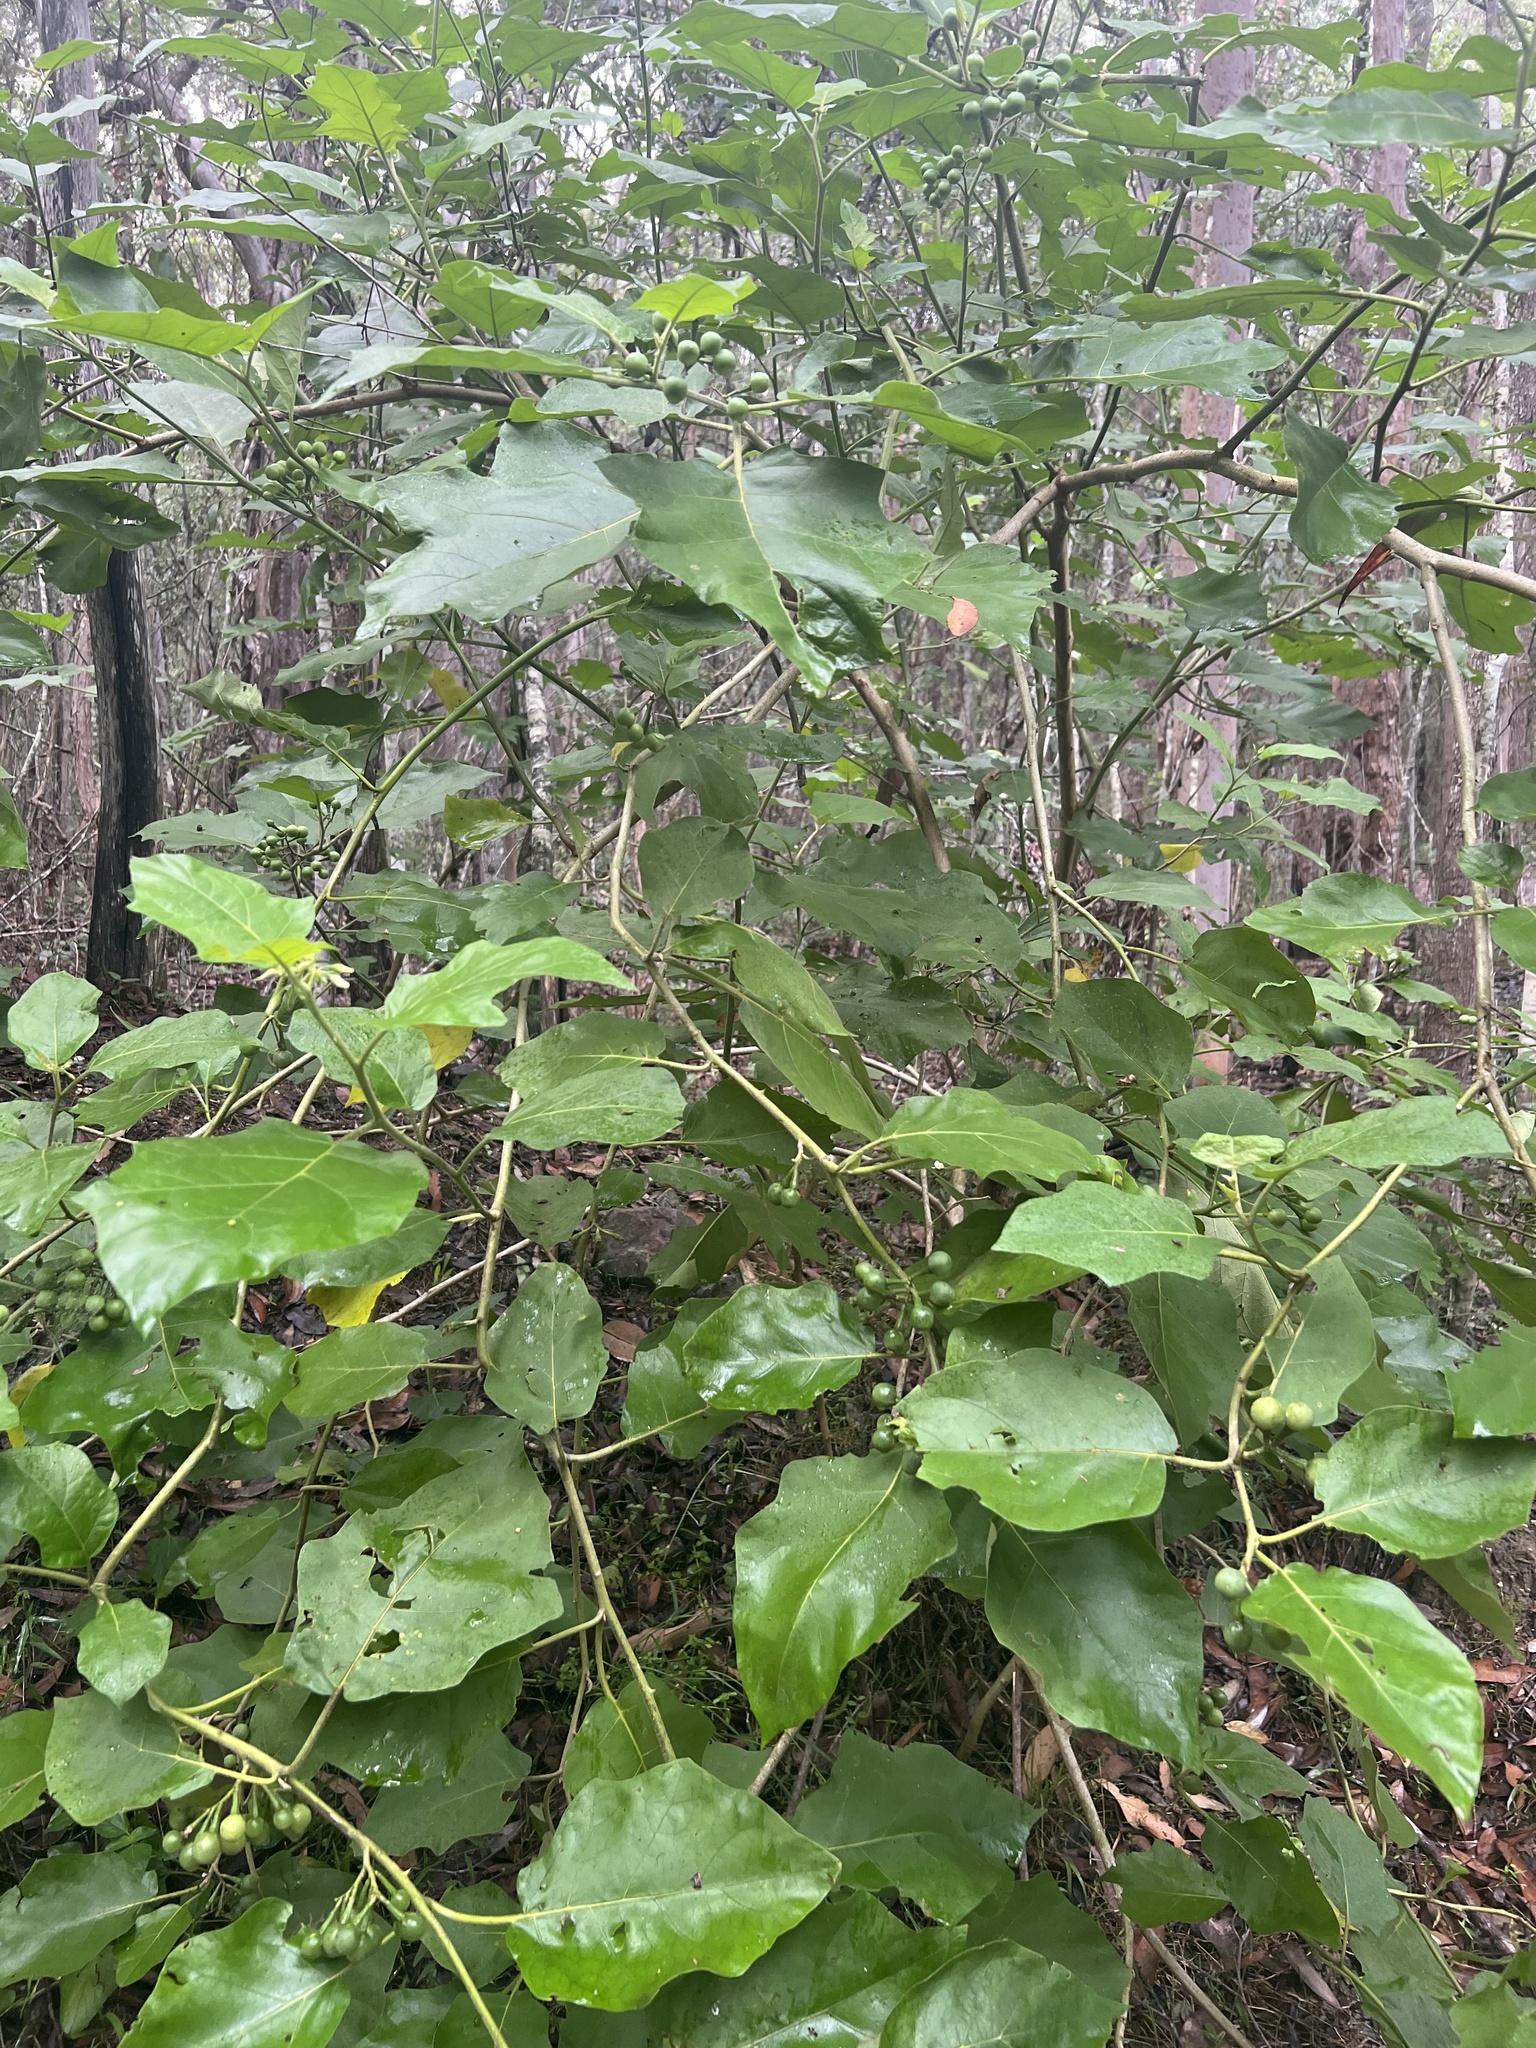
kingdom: Plantae
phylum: Tracheophyta
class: Magnoliopsida
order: Solanales
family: Solanaceae
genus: Solanum
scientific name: Solanum torvum
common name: Turkey berry
